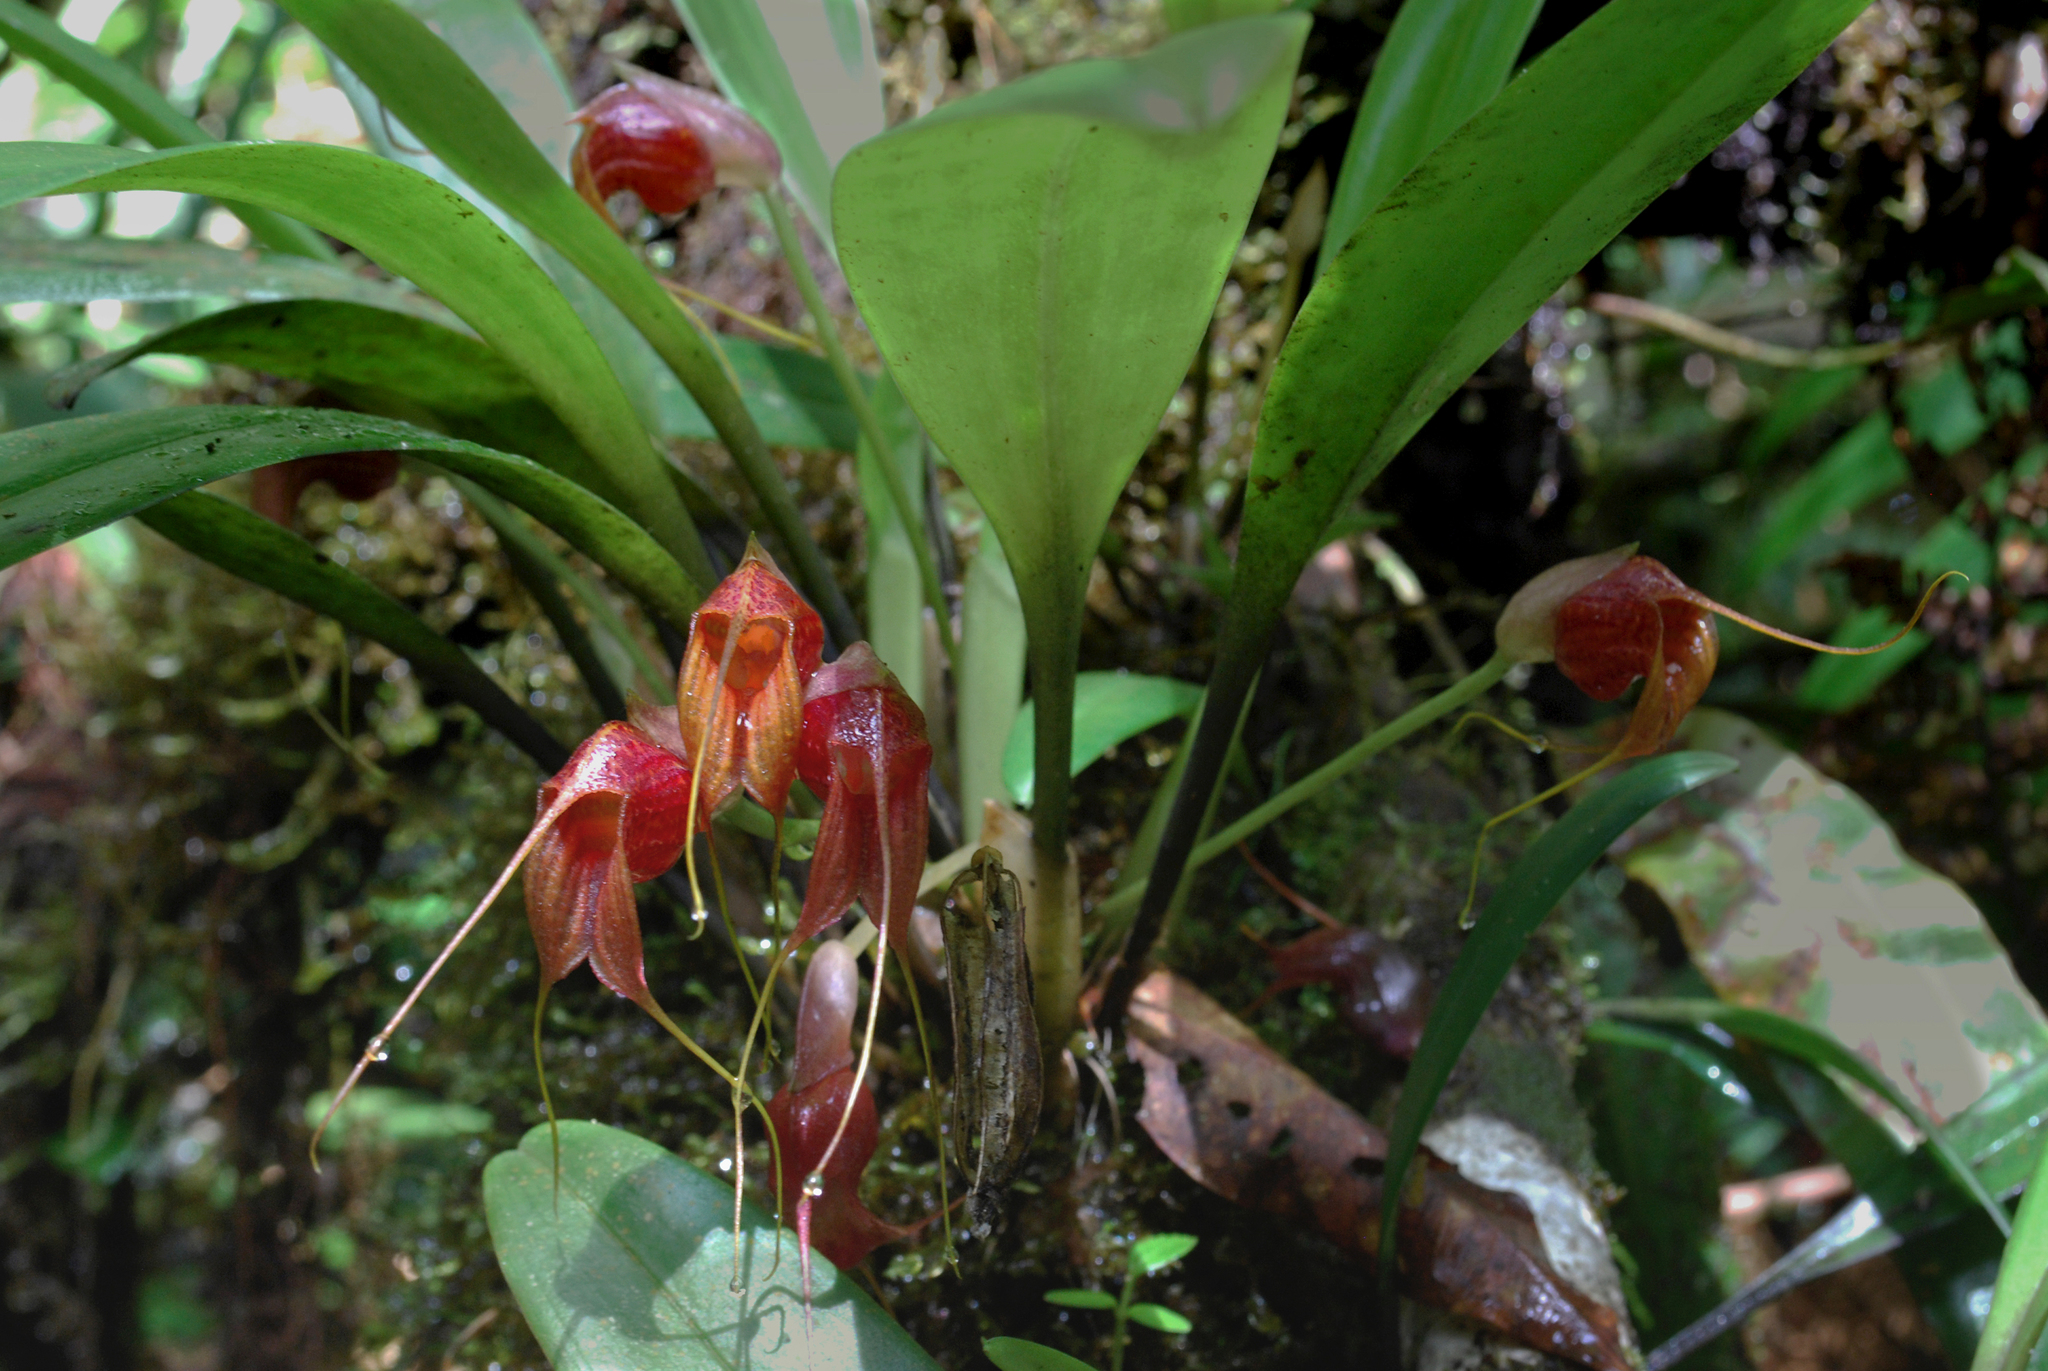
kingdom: Plantae
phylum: Tracheophyta
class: Liliopsida
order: Asparagales
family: Orchidaceae
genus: Masdevallia
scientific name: Masdevallia corniculata
